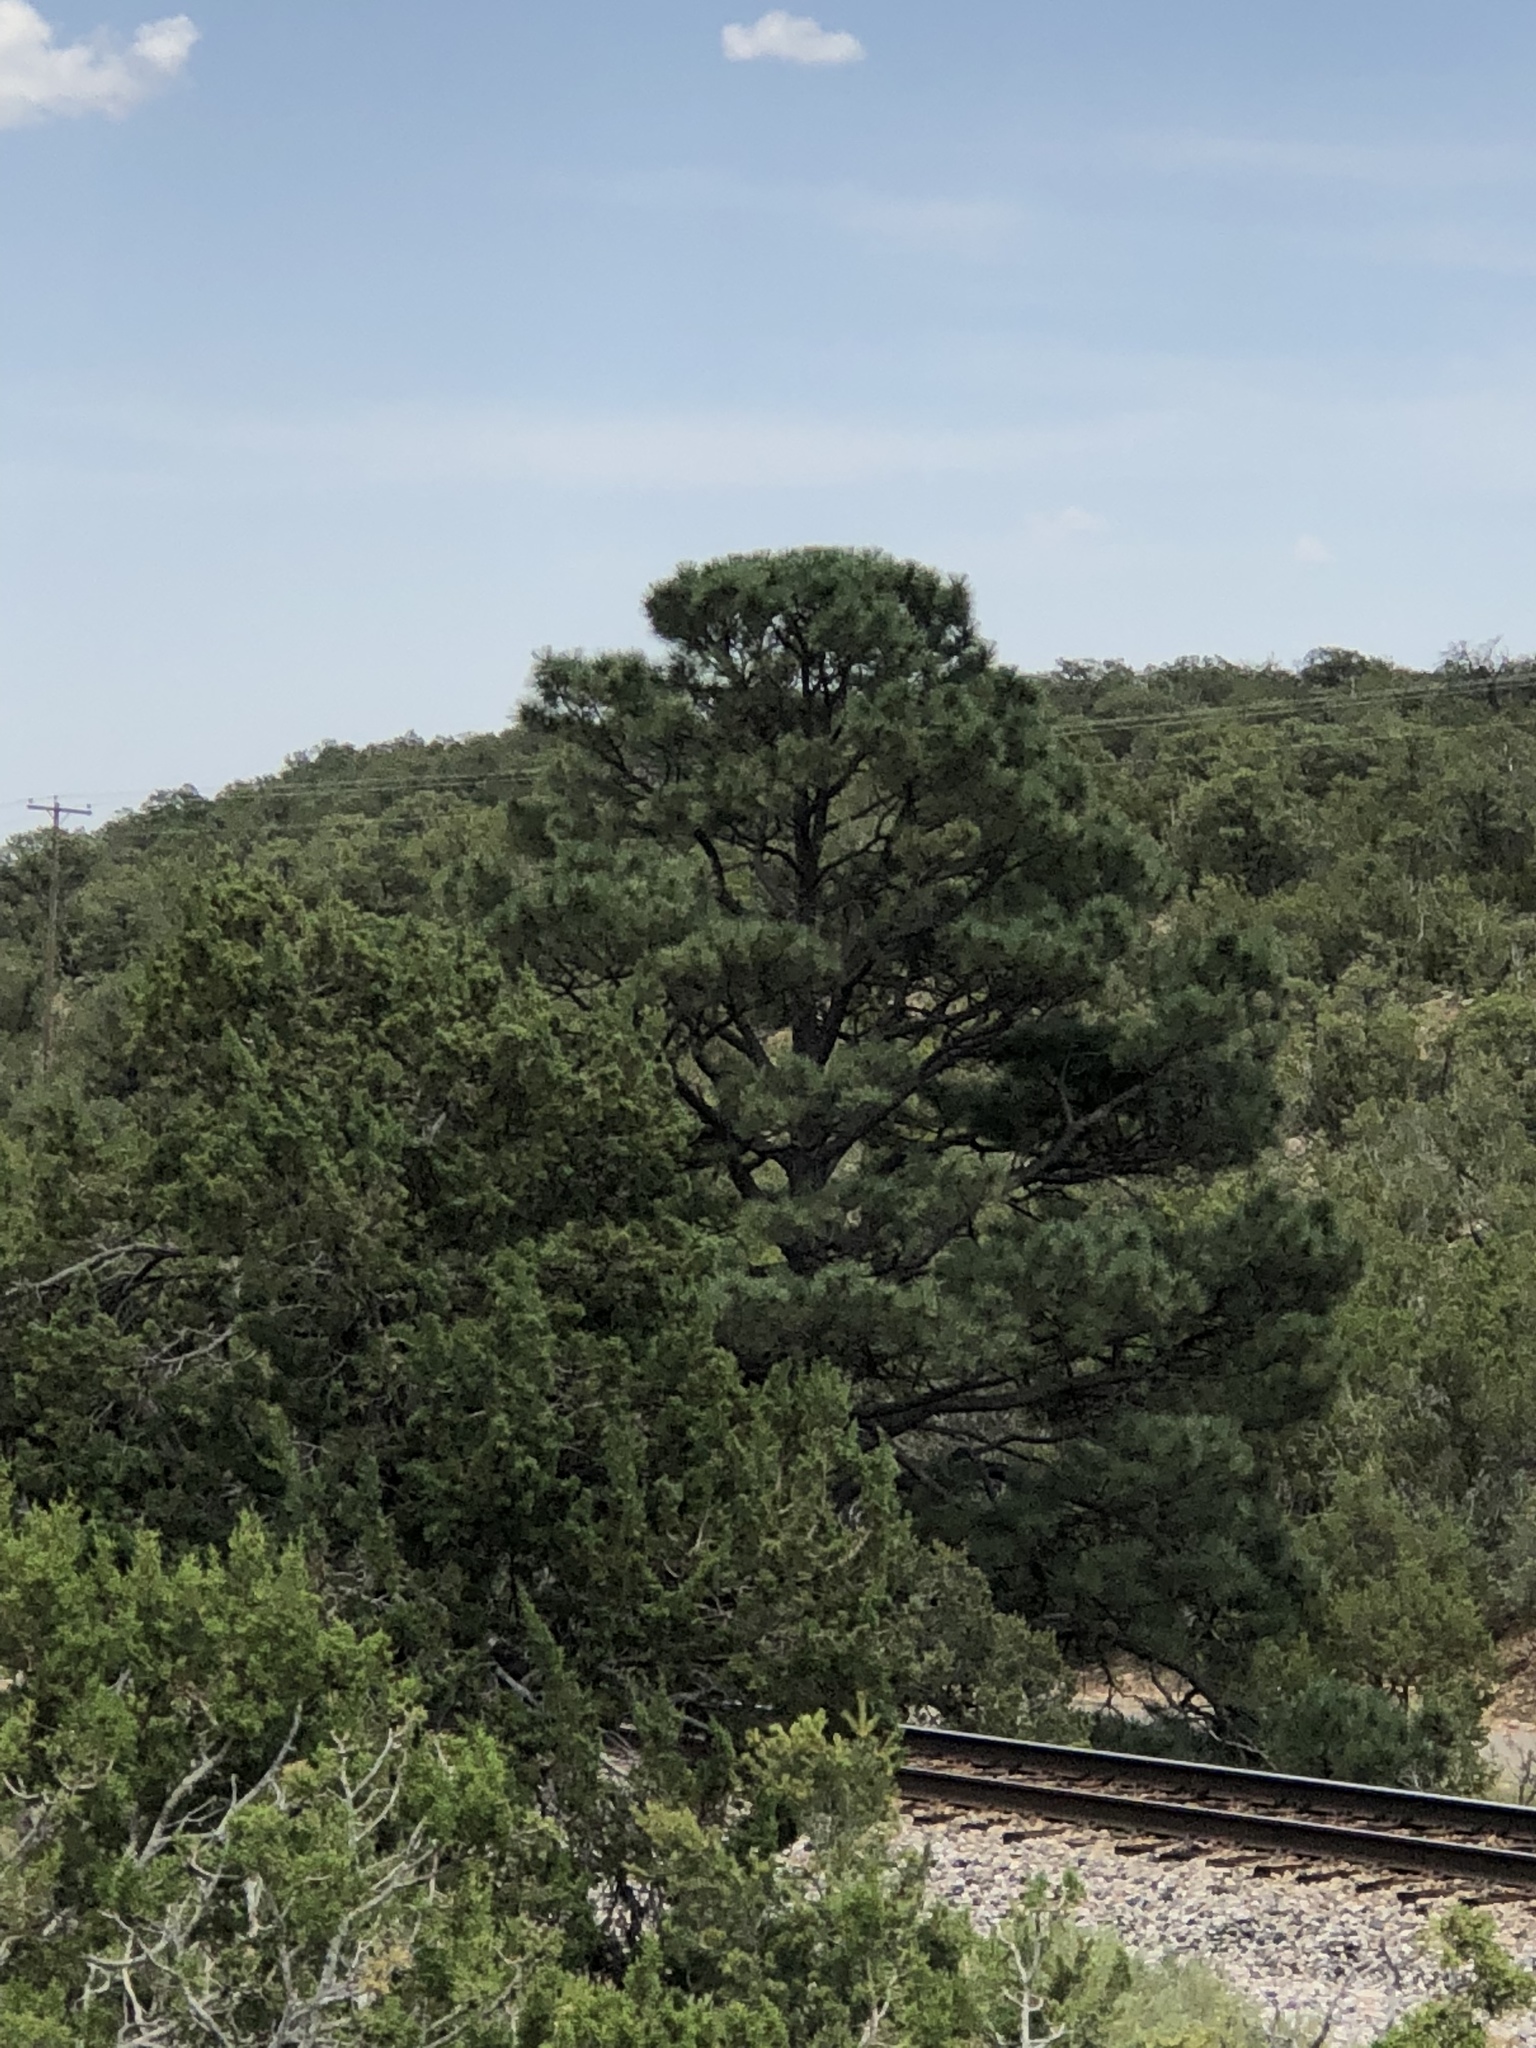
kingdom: Plantae
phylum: Tracheophyta
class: Pinopsida
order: Pinales
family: Pinaceae
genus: Pinus
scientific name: Pinus ponderosa
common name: Western yellow-pine
